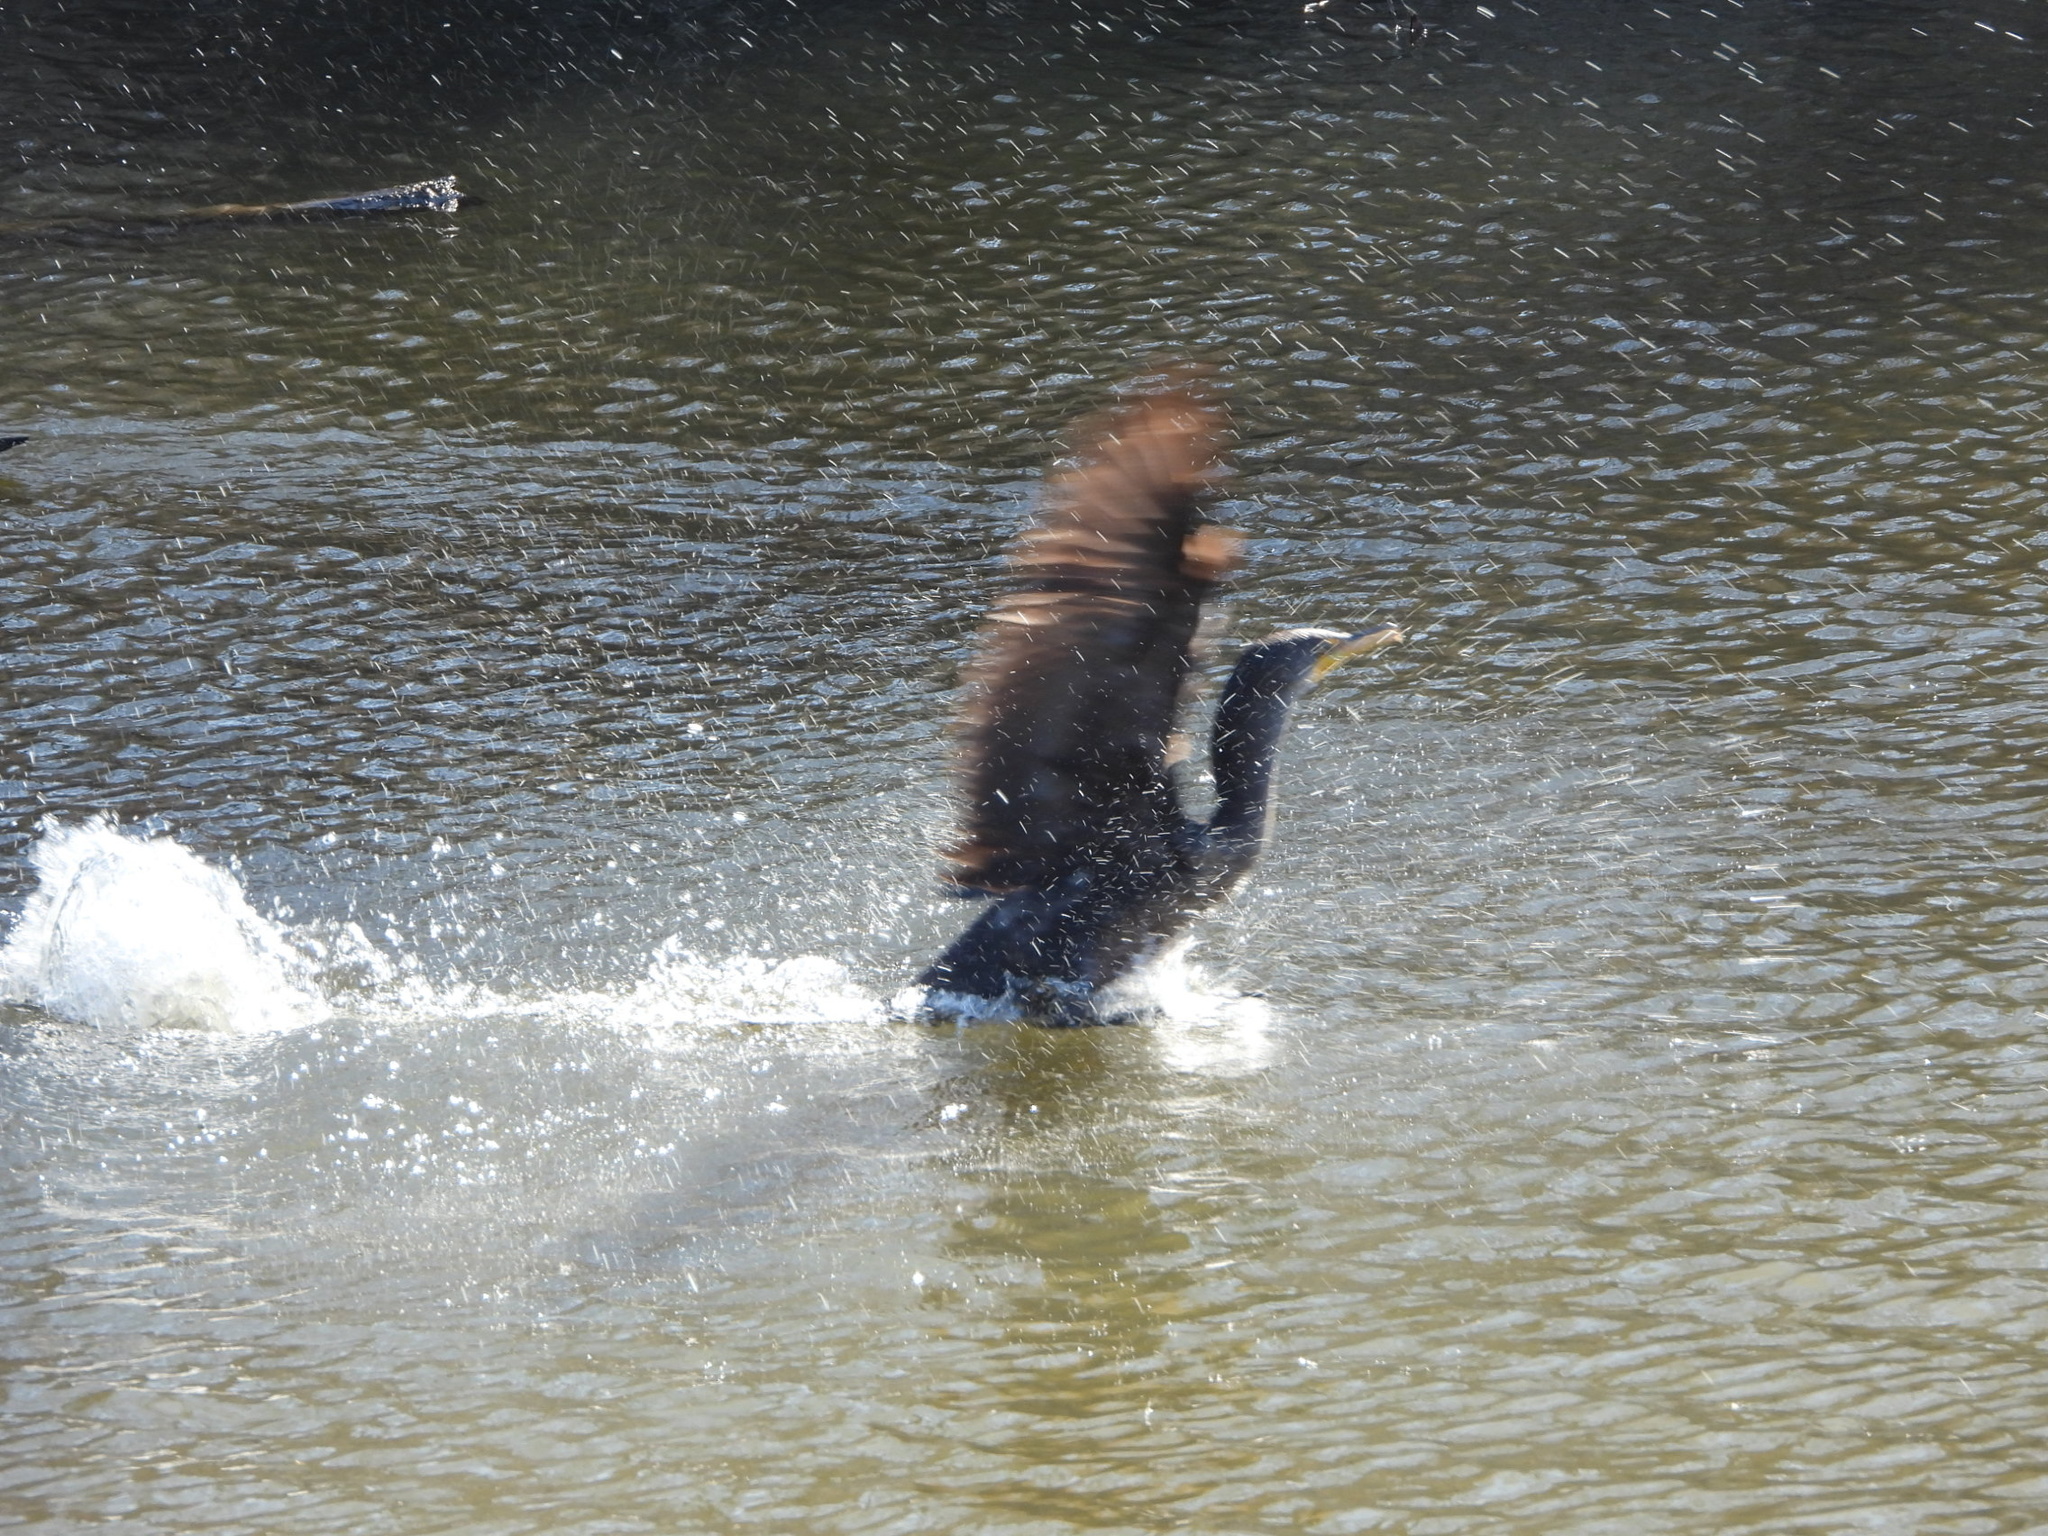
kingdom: Animalia
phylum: Chordata
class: Aves
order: Suliformes
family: Phalacrocoracidae
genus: Phalacrocorax
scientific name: Phalacrocorax auritus
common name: Double-crested cormorant
